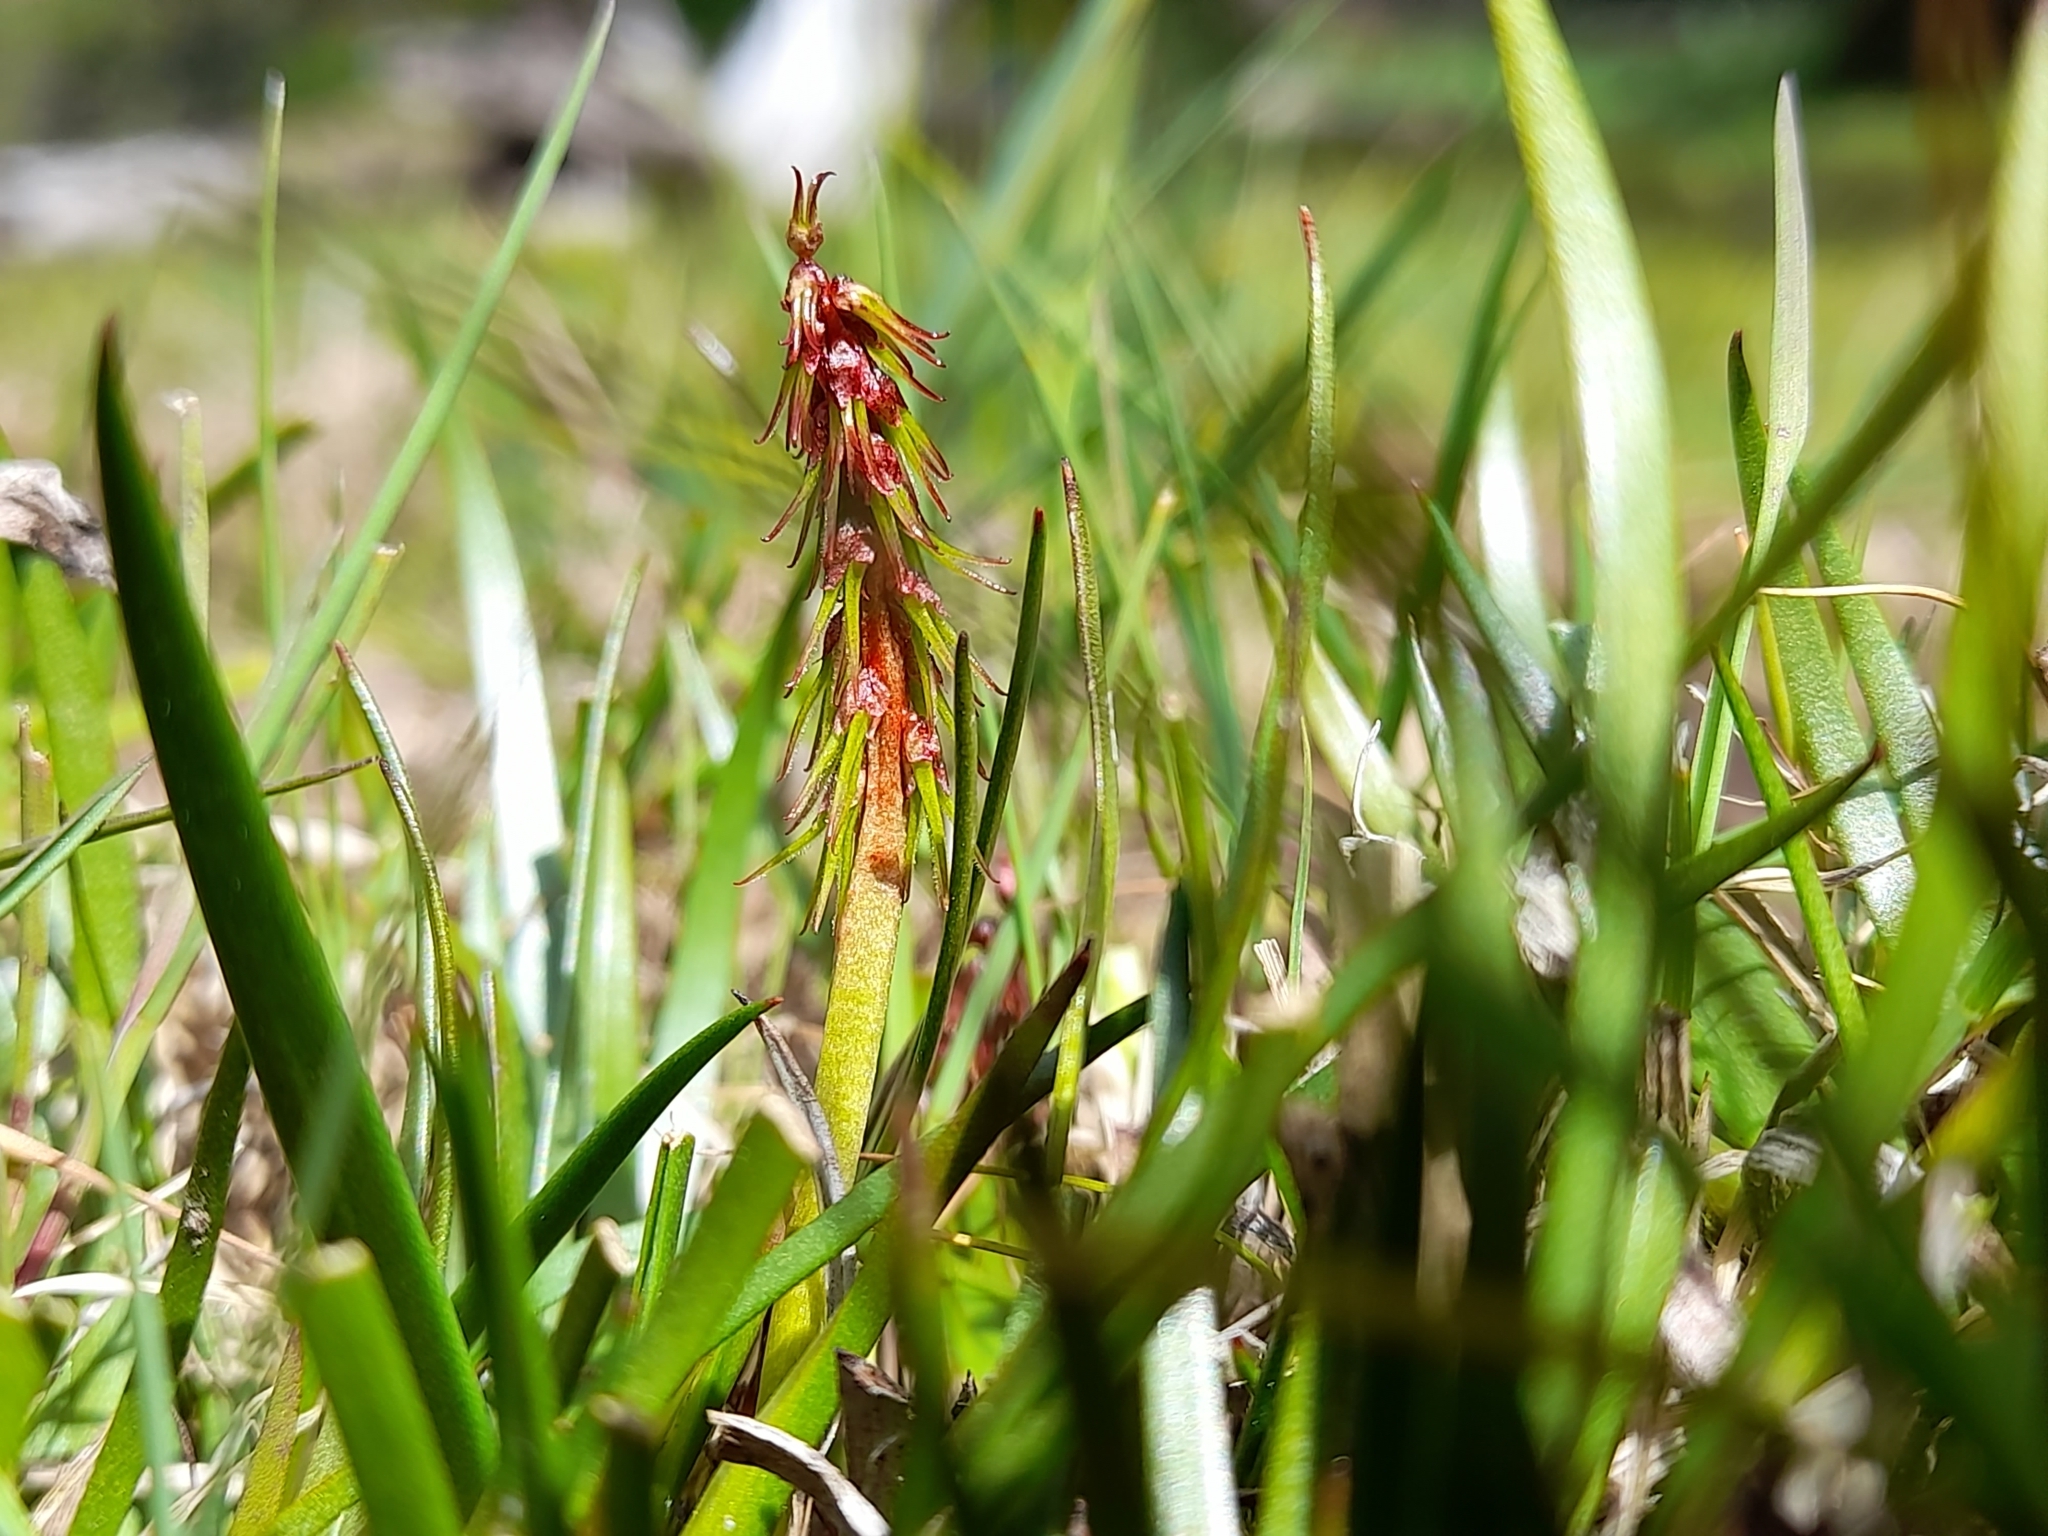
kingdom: Plantae
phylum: Tracheophyta
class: Liliopsida
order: Alismatales
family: Juncaginaceae
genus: Tetroncium
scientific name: Tetroncium magellanicum
